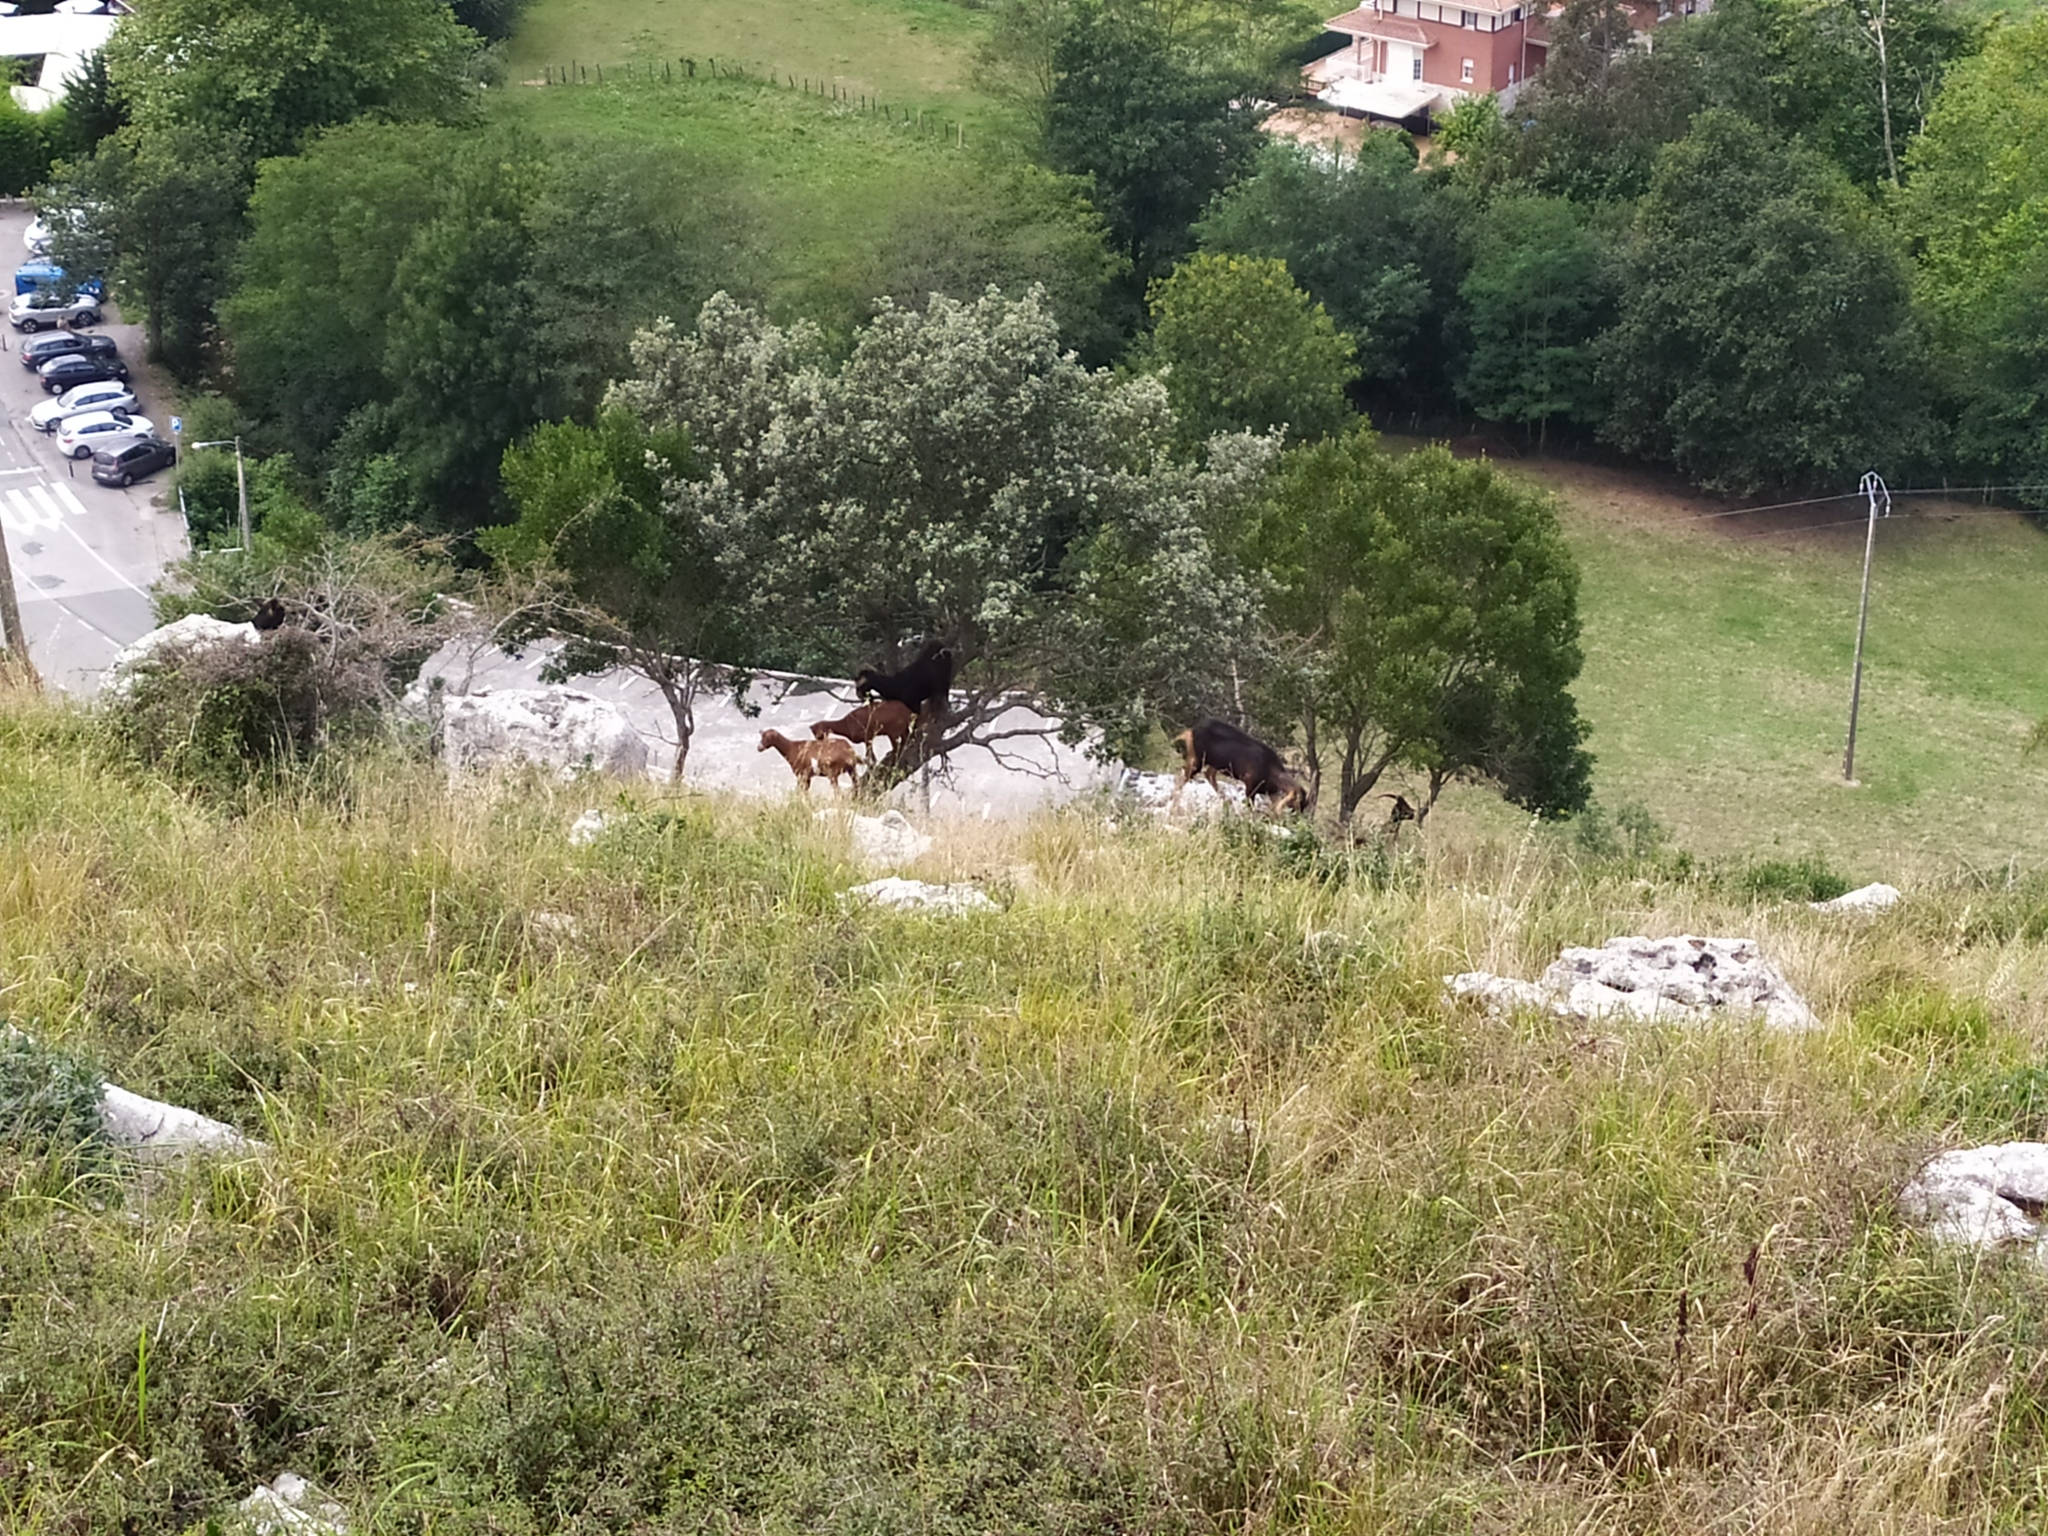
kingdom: Animalia
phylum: Chordata
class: Mammalia
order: Artiodactyla
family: Bovidae
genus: Capra
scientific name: Capra hircus
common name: Domestic goat
